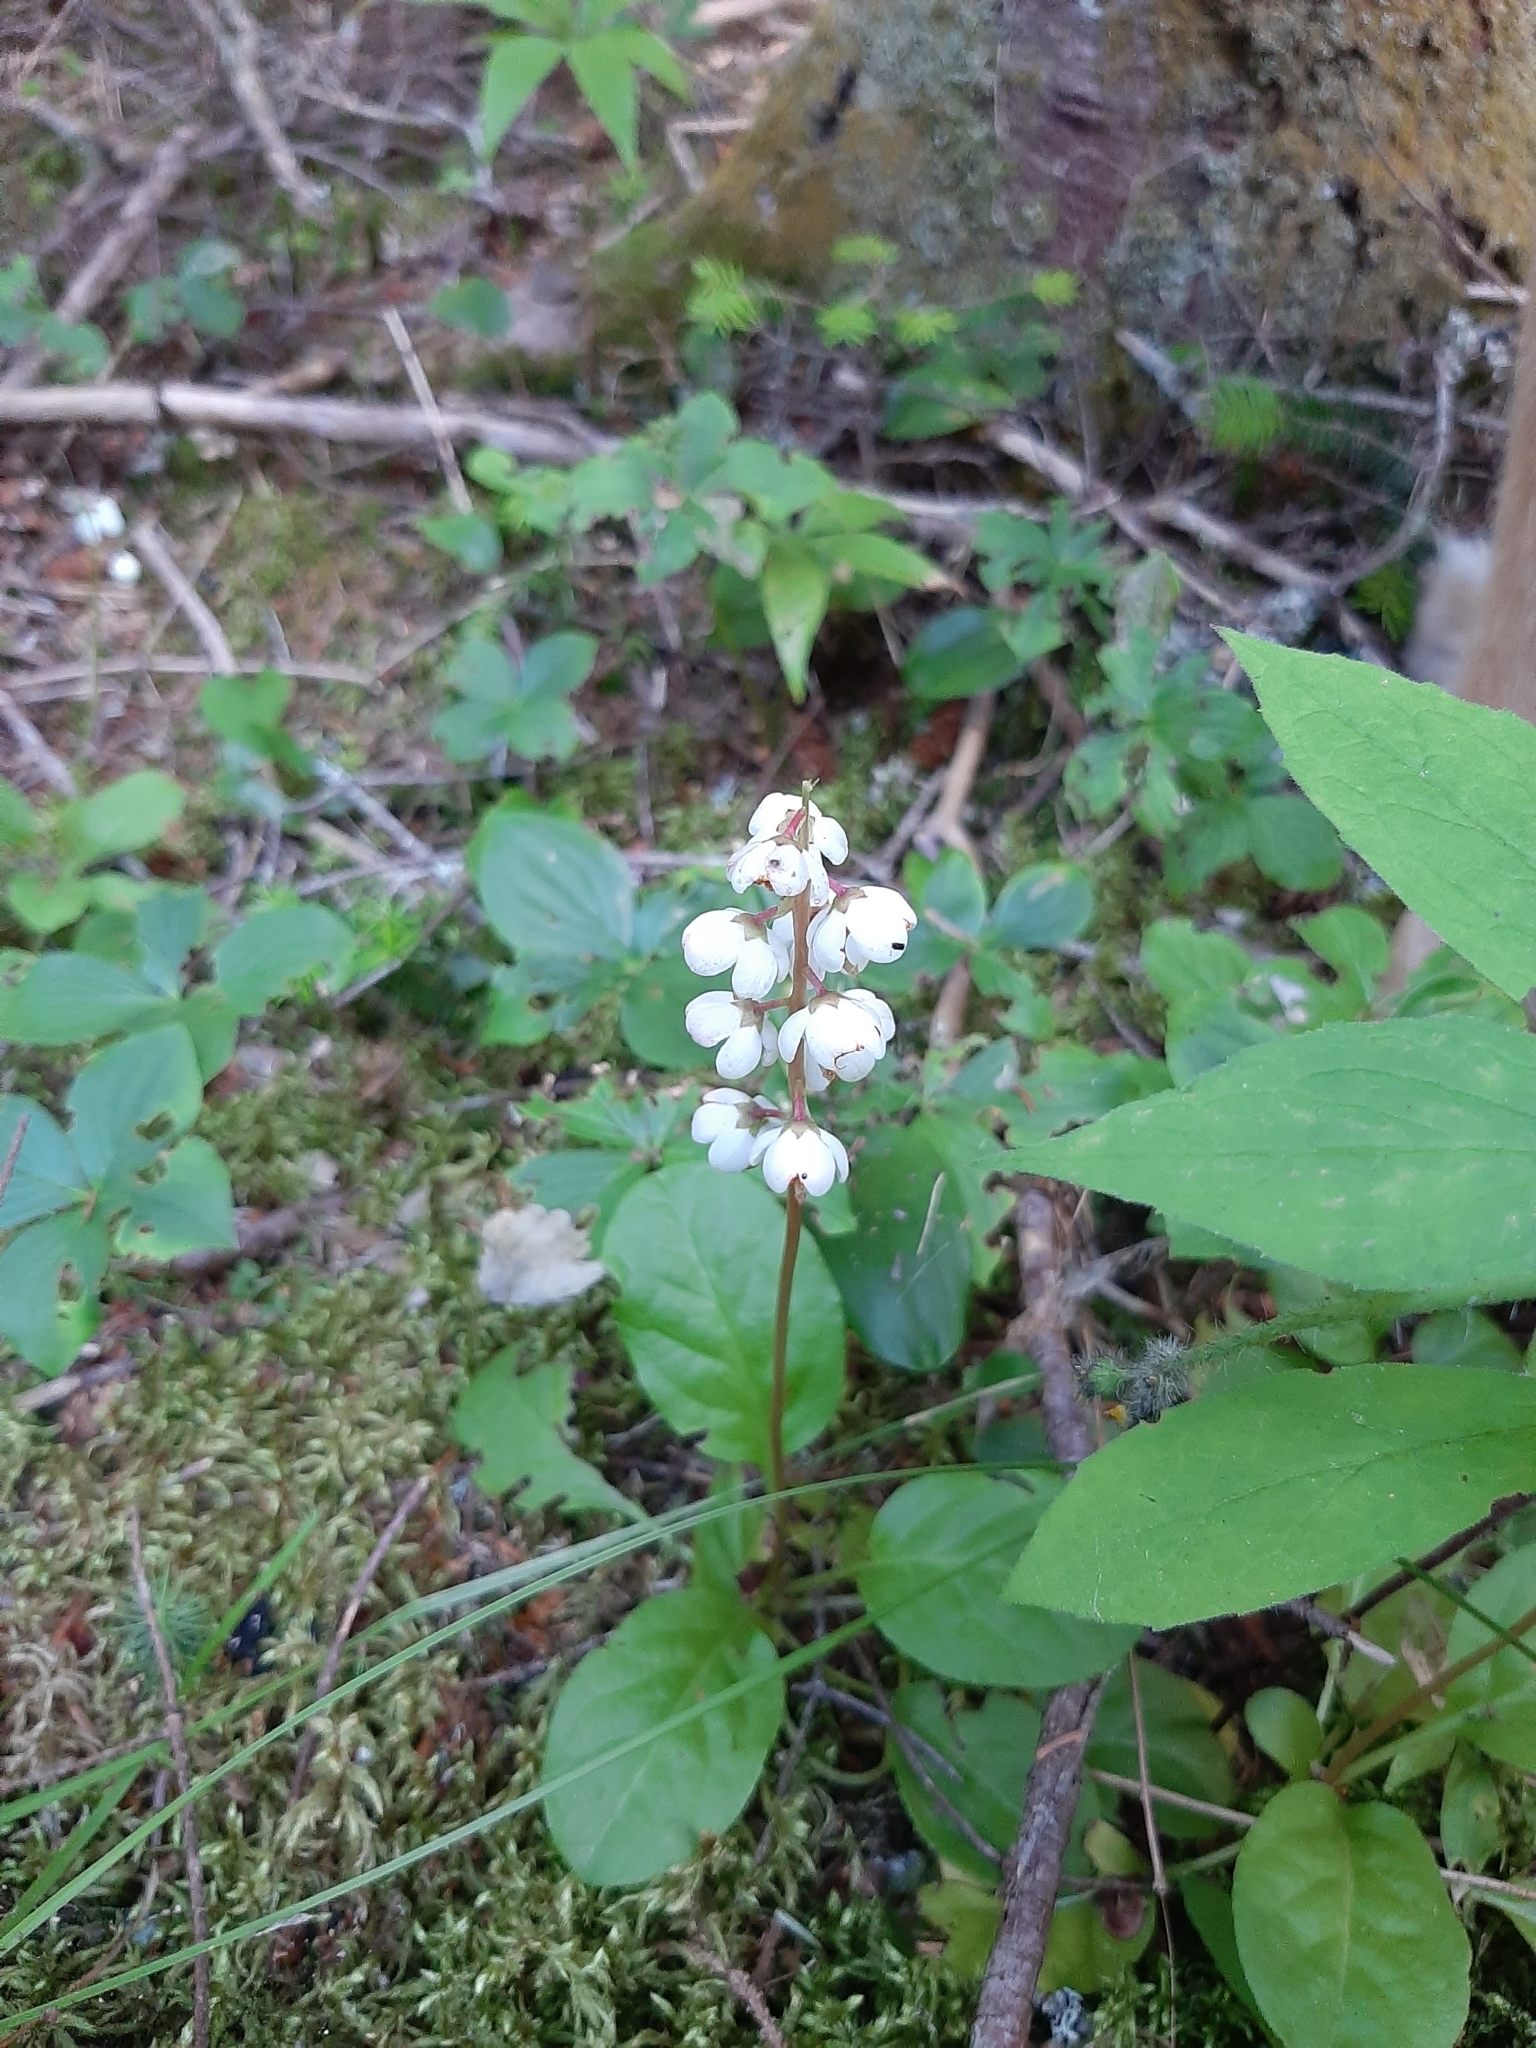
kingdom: Plantae
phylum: Tracheophyta
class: Magnoliopsida
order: Ericales
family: Ericaceae
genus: Pyrola
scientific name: Pyrola elliptica
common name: Shinleaf
